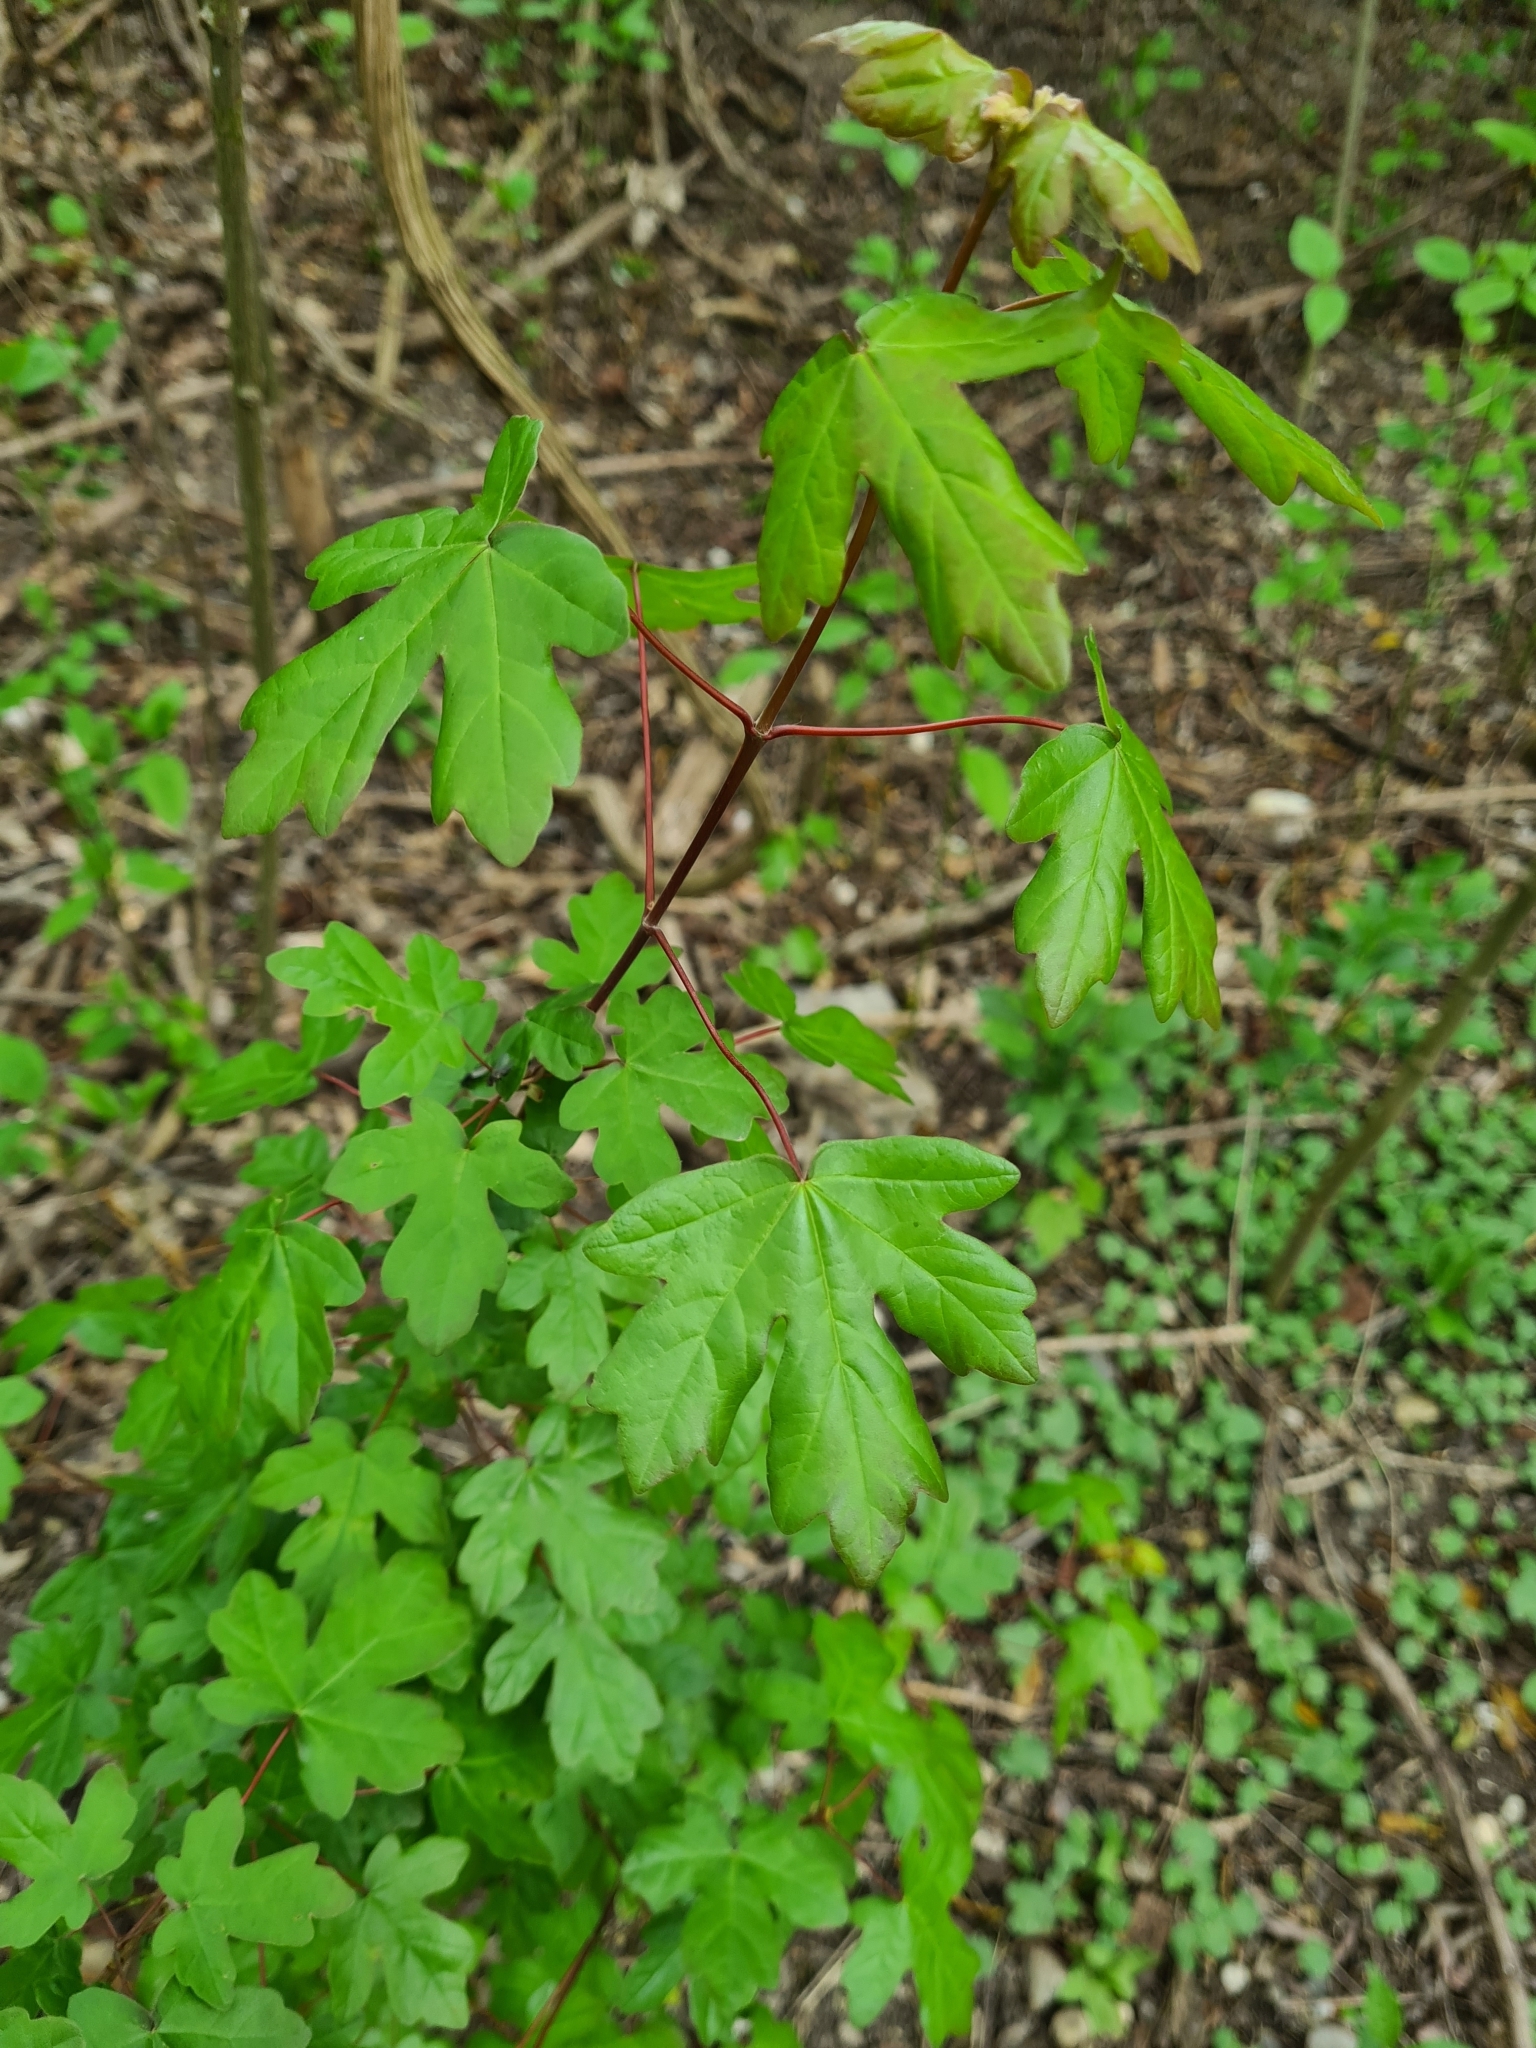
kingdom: Plantae
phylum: Tracheophyta
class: Magnoliopsida
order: Sapindales
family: Sapindaceae
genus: Acer
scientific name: Acer campestre
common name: Field maple
